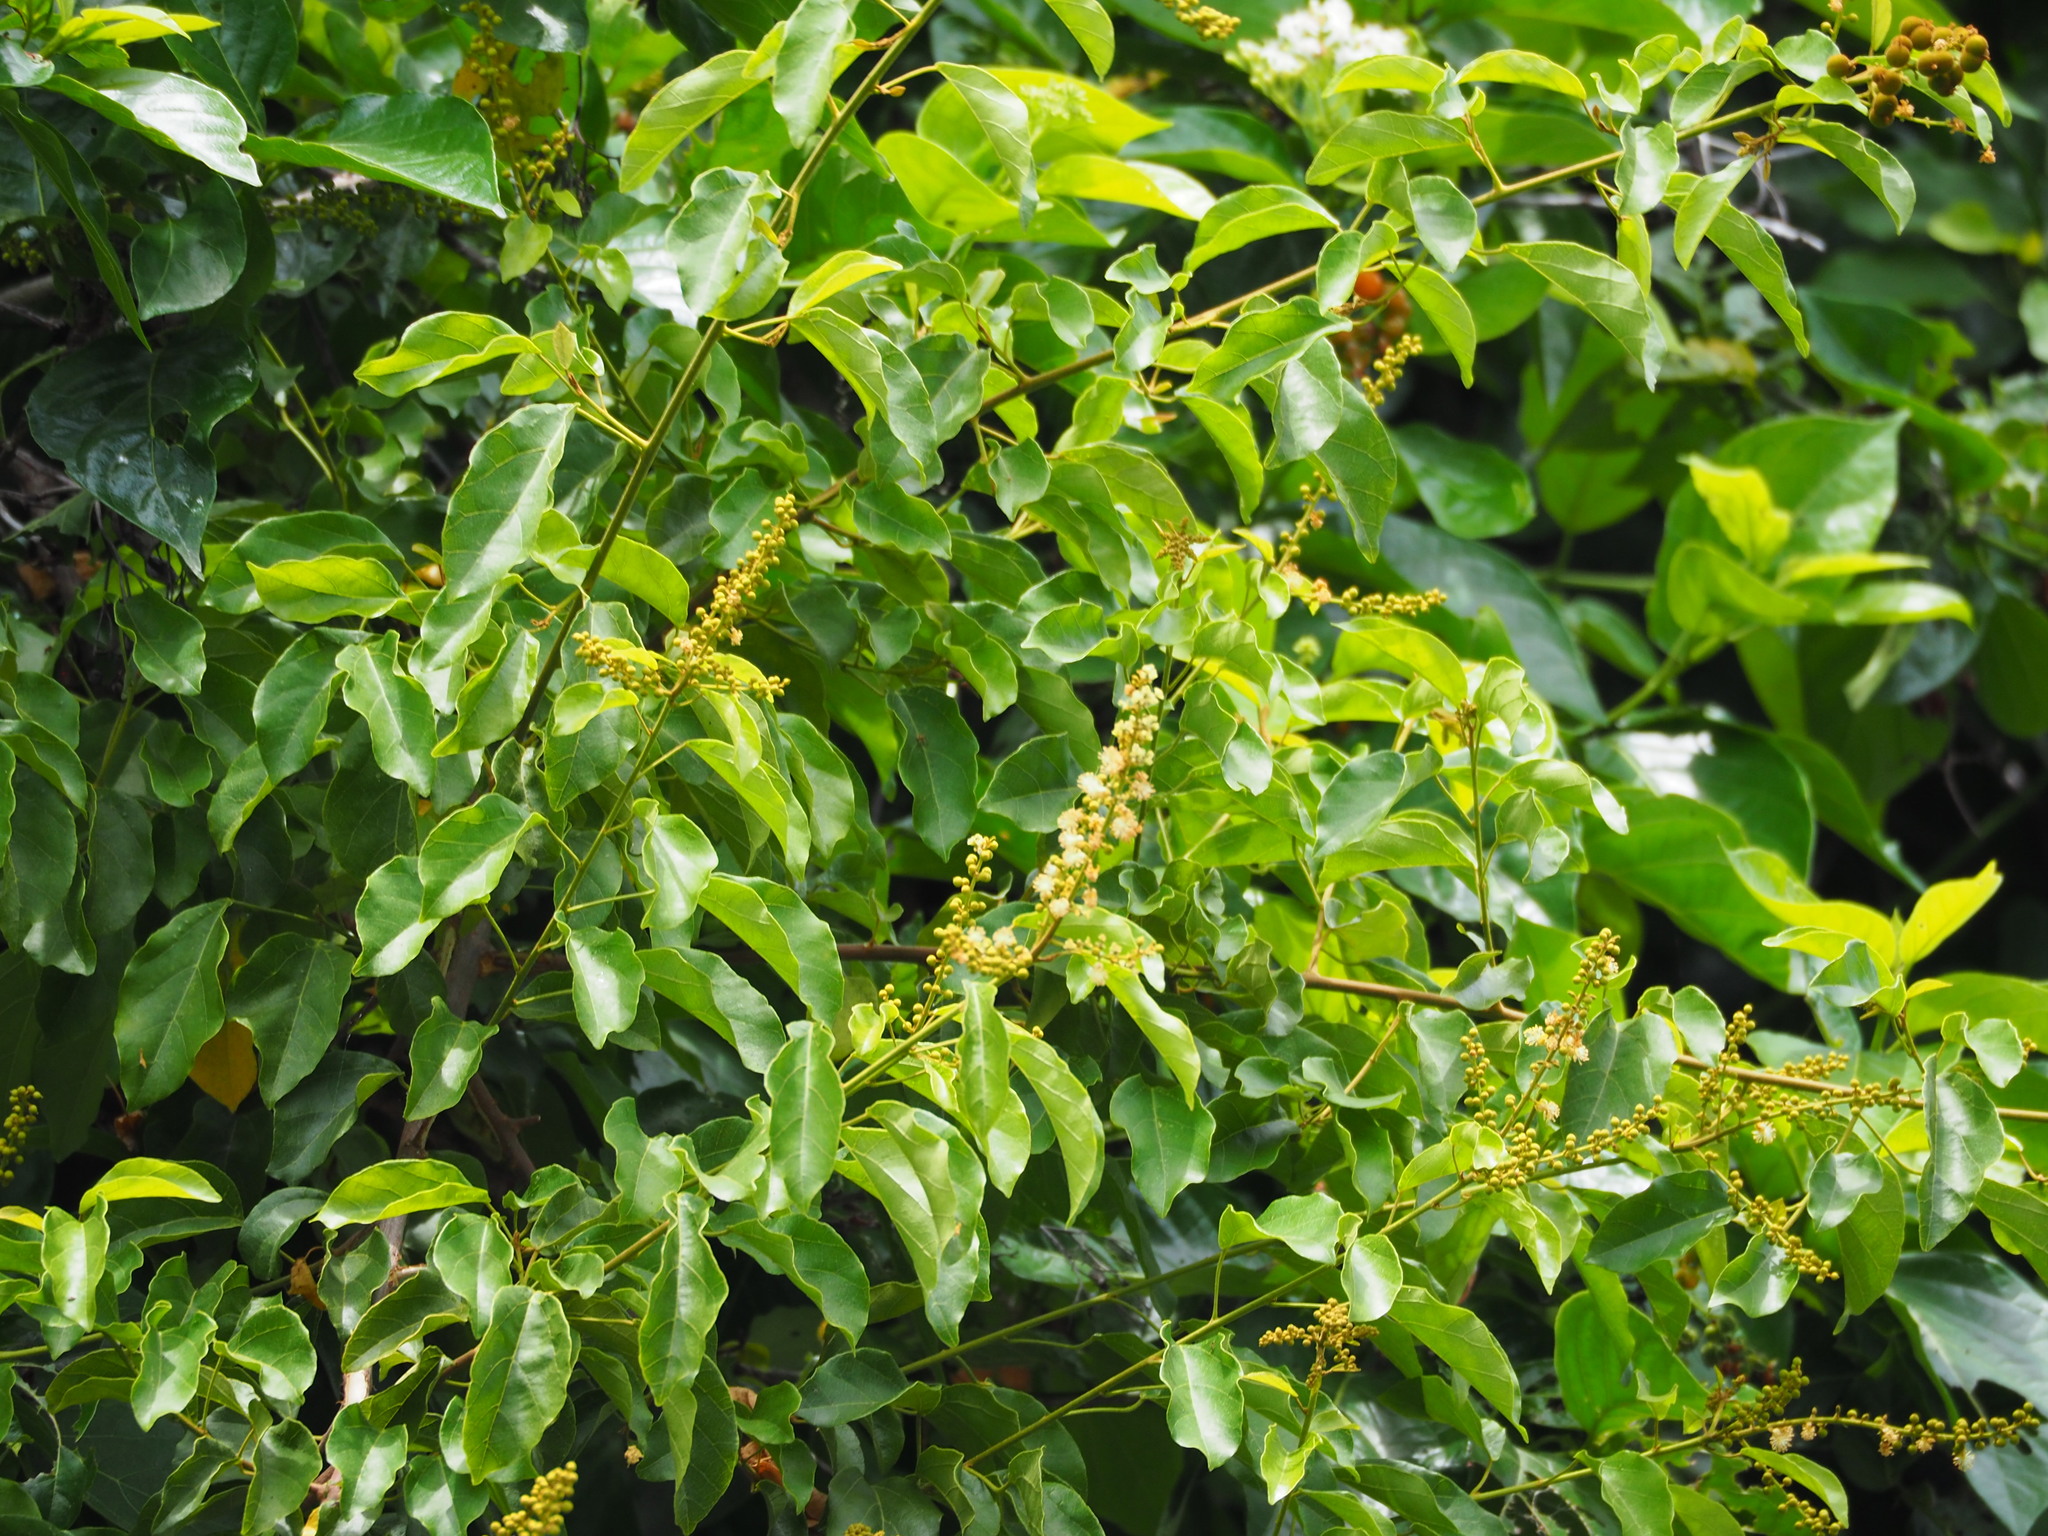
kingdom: Plantae
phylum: Tracheophyta
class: Magnoliopsida
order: Malpighiales
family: Euphorbiaceae
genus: Mallotus
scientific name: Mallotus repandus
